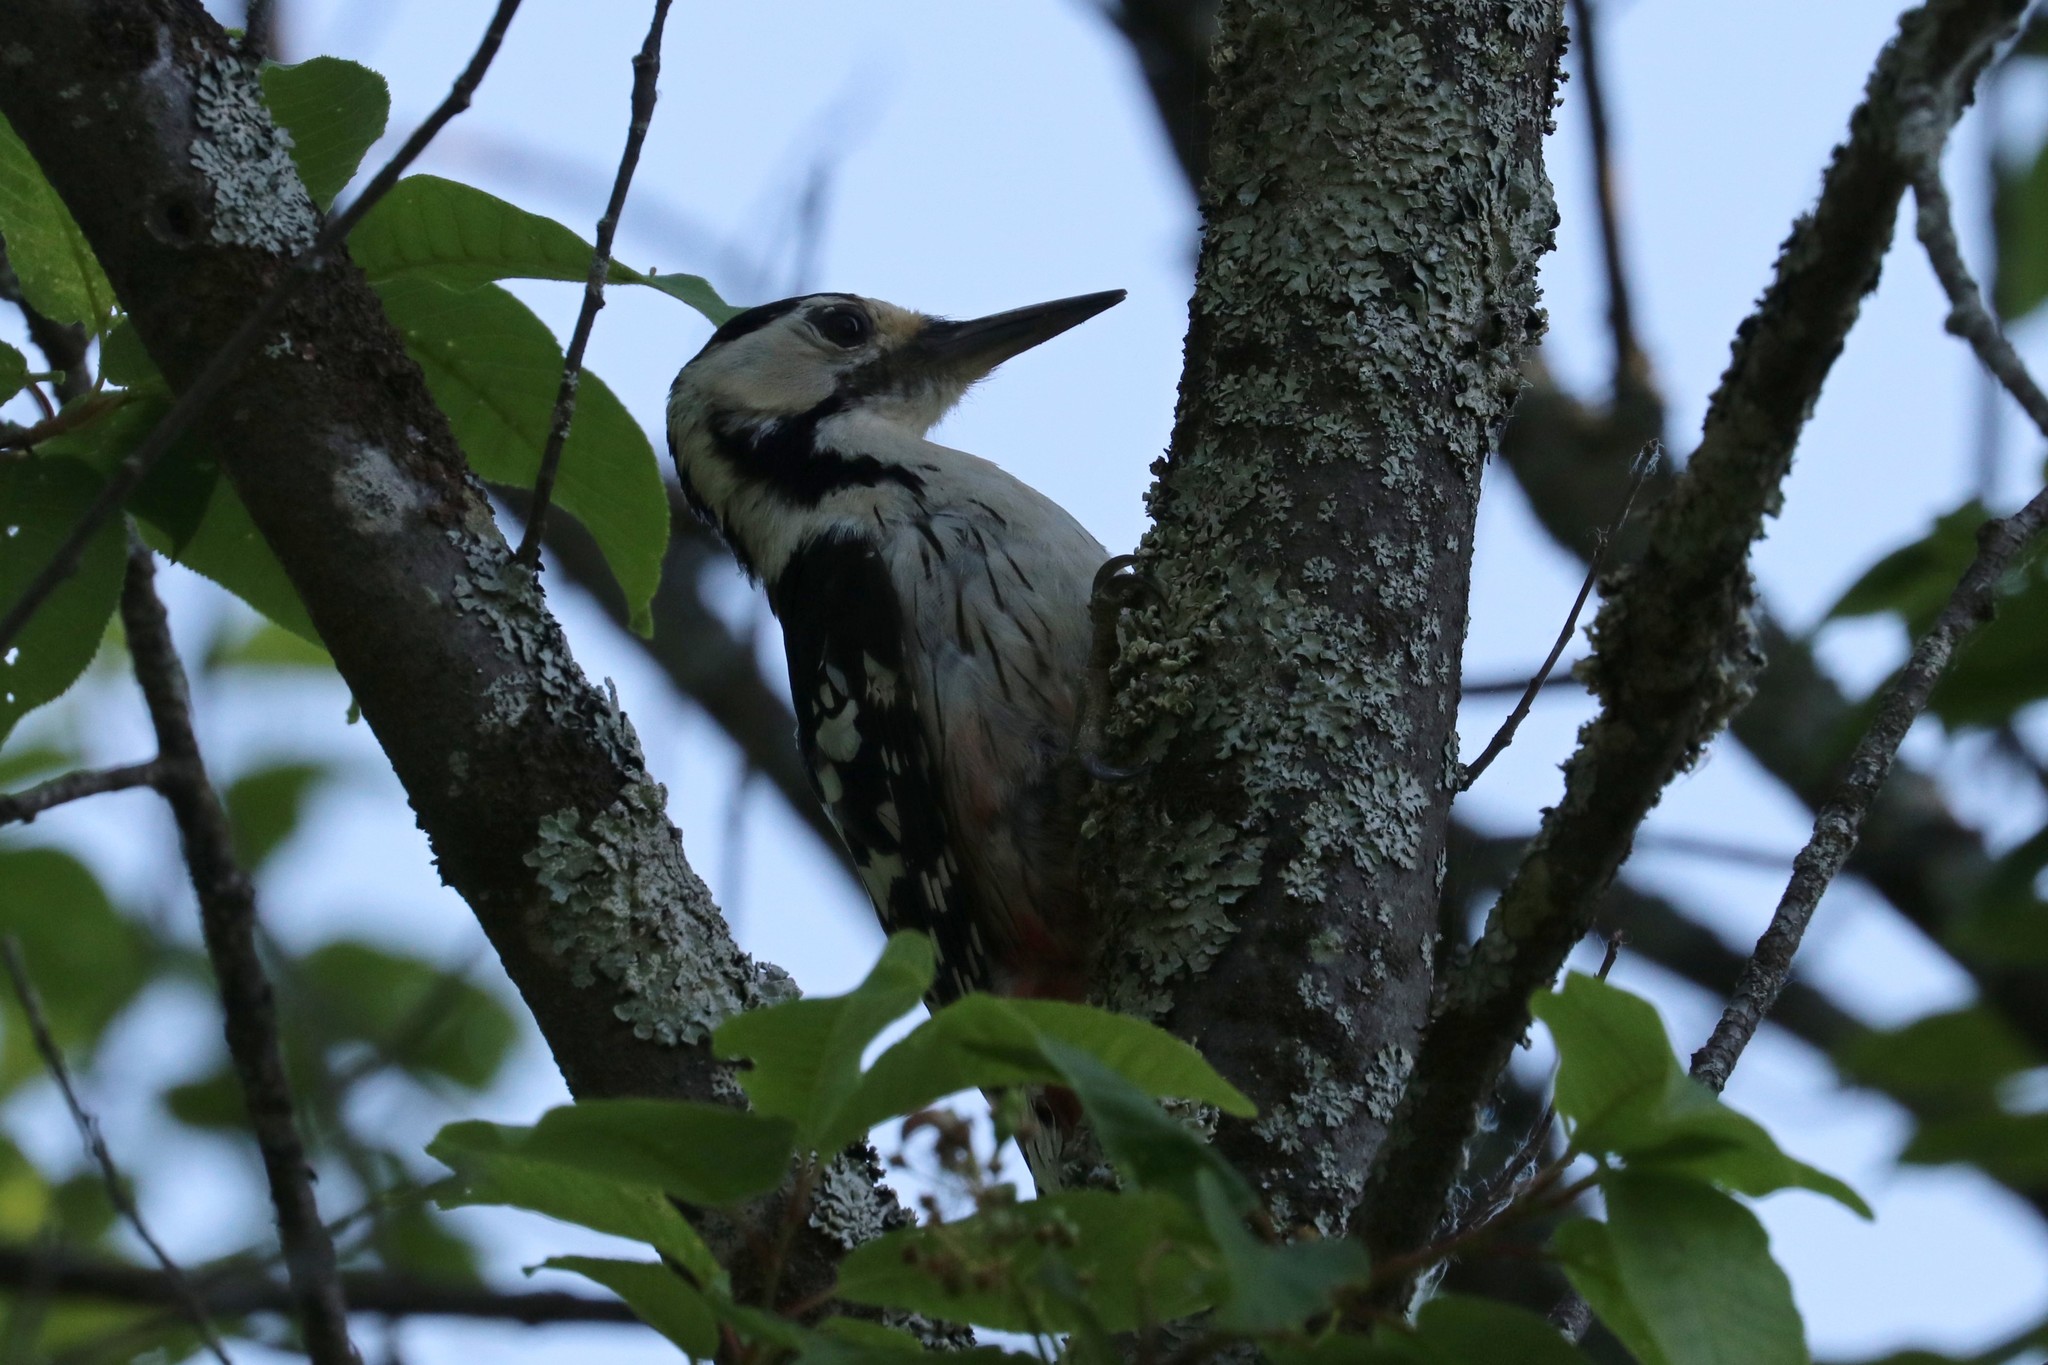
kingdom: Animalia
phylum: Chordata
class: Aves
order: Piciformes
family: Picidae
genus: Dendrocopos
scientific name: Dendrocopos leucotos
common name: White-backed woodpecker
